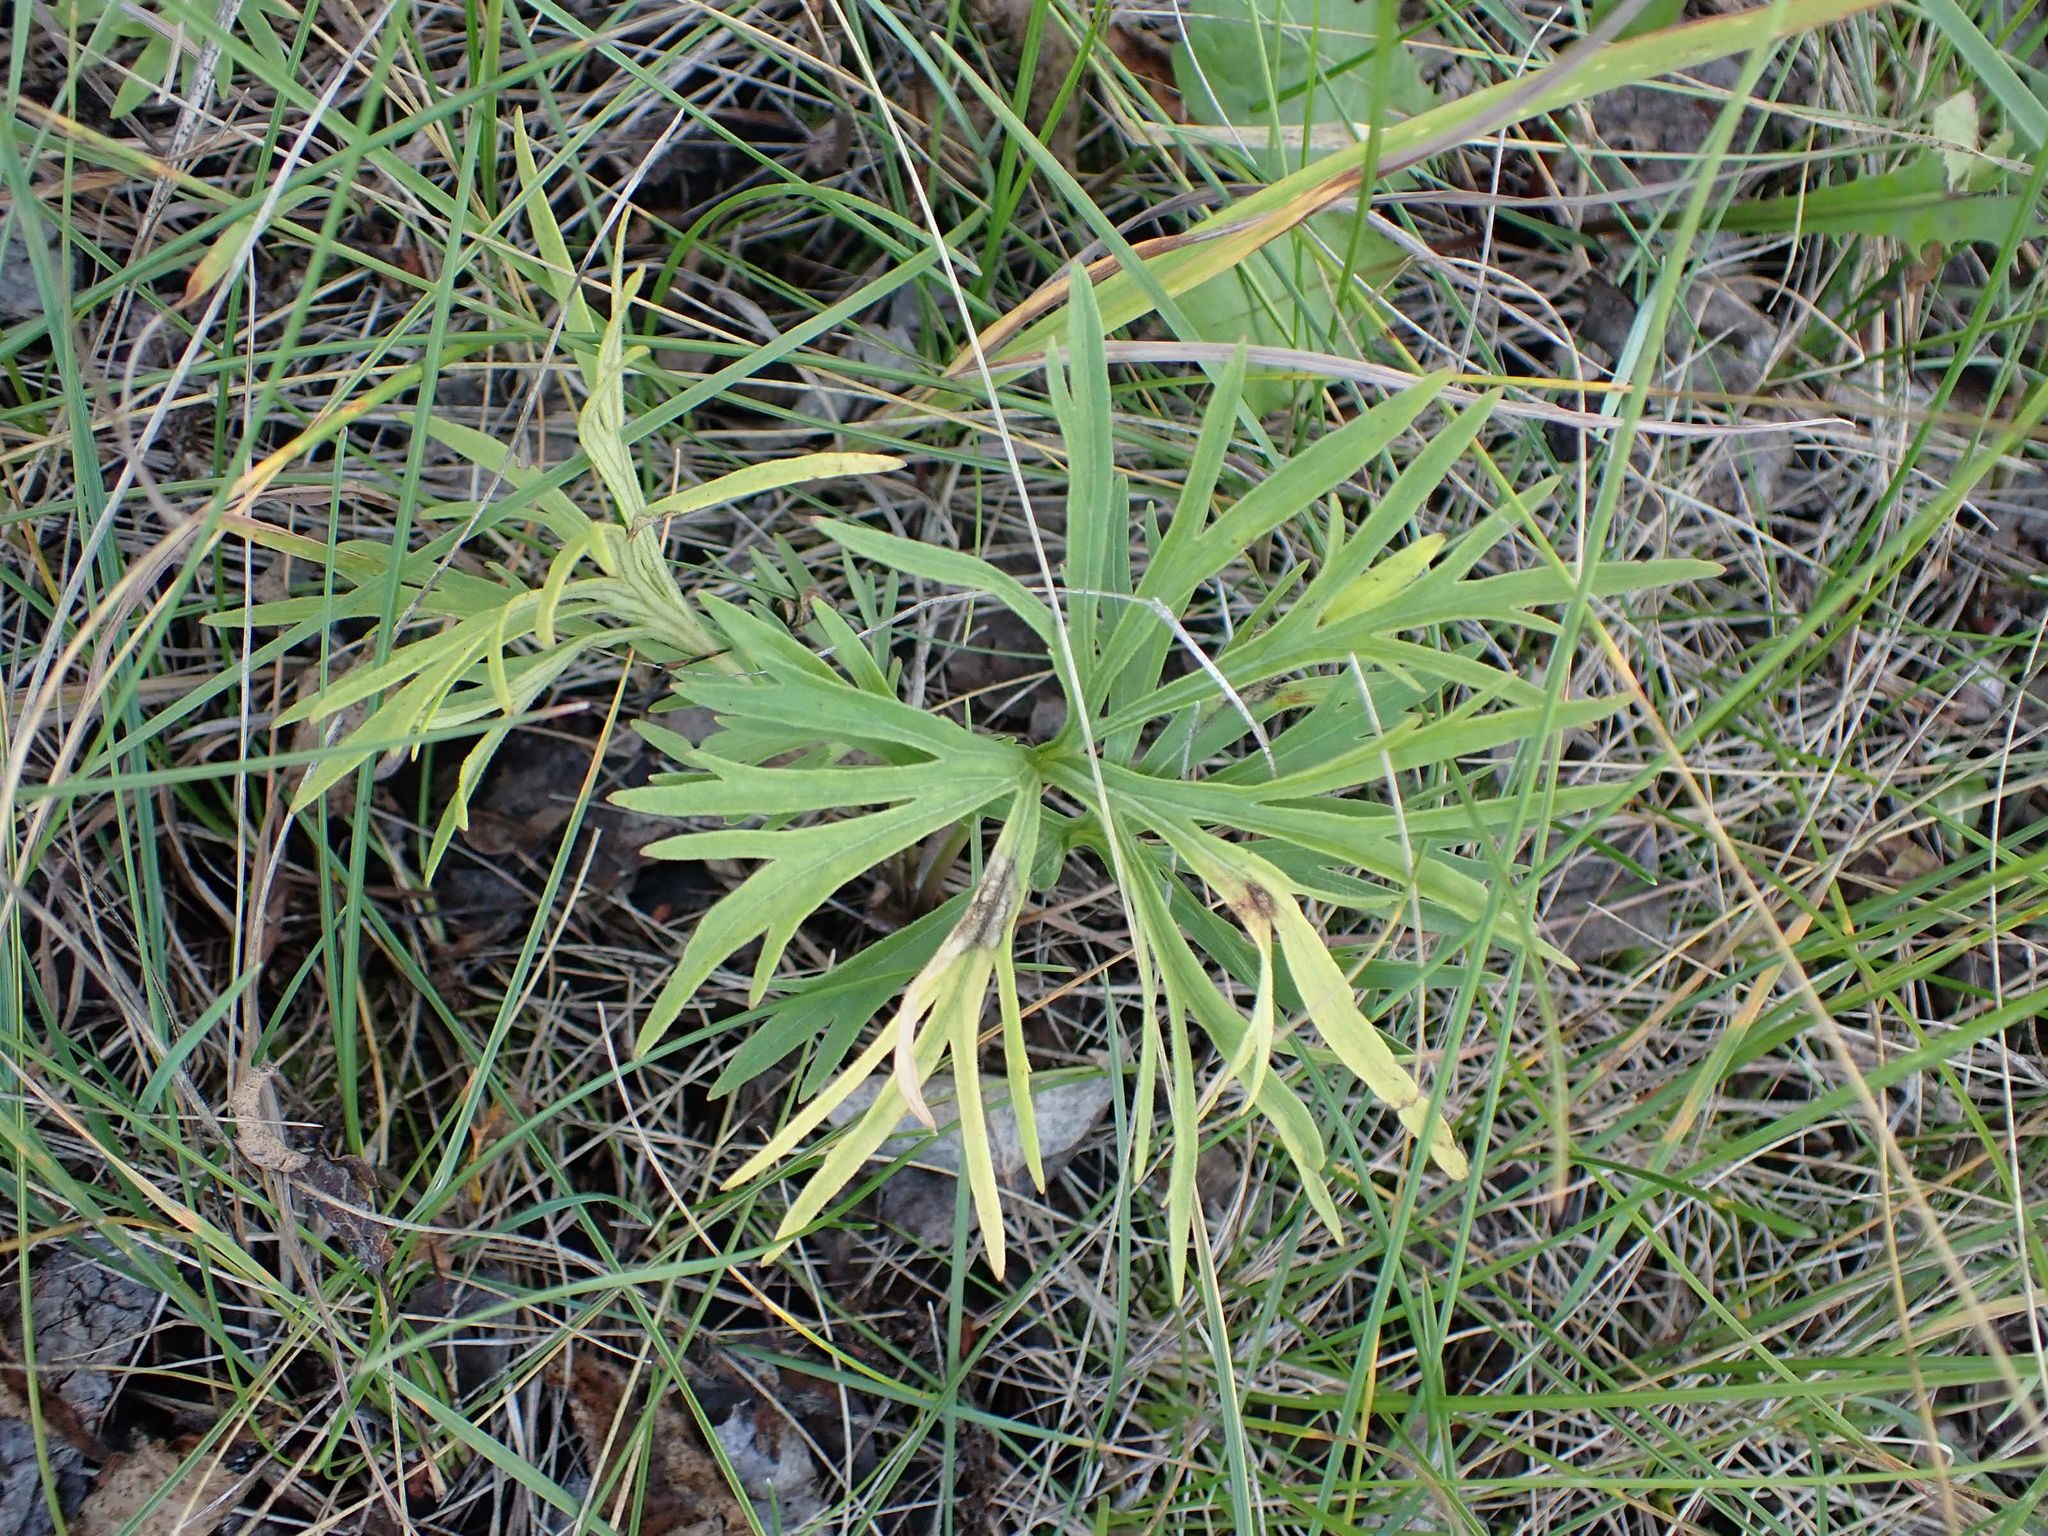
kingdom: Plantae
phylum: Tracheophyta
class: Magnoliopsida
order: Ranunculales
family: Ranunculaceae
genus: Pulsatilla
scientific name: Pulsatilla nuttalliana
